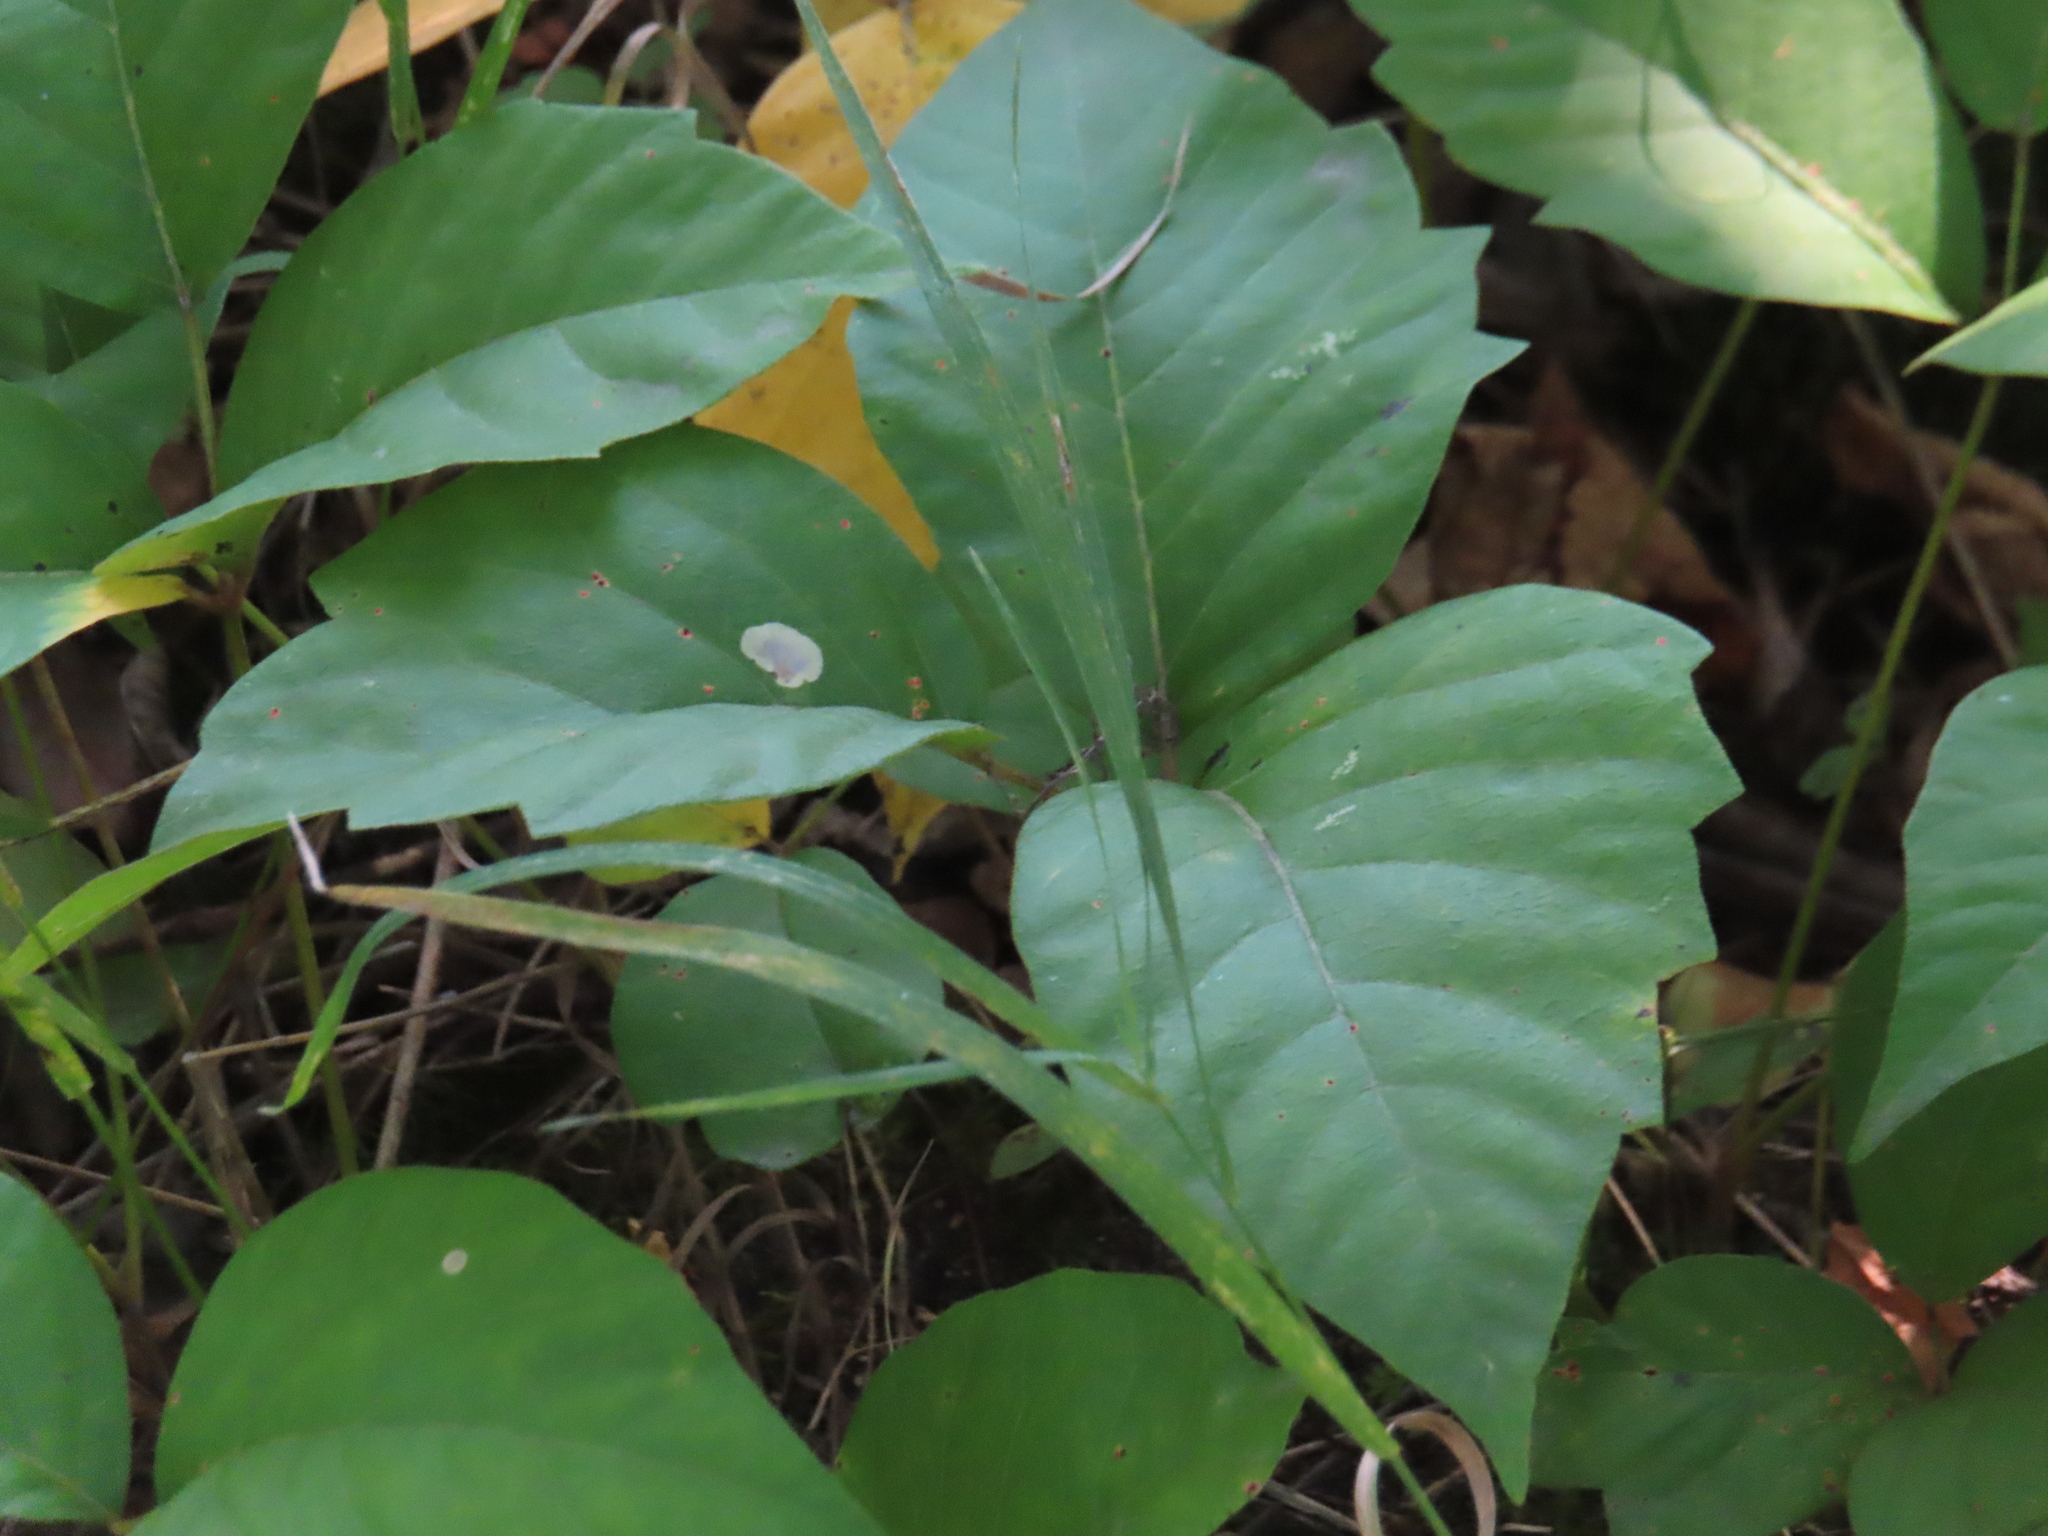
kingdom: Animalia
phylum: Arthropoda
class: Insecta
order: Lepidoptera
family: Gracillariidae
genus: Cameraria
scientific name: Cameraria guttifinitella
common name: Poison ivy leaf-miner moth
